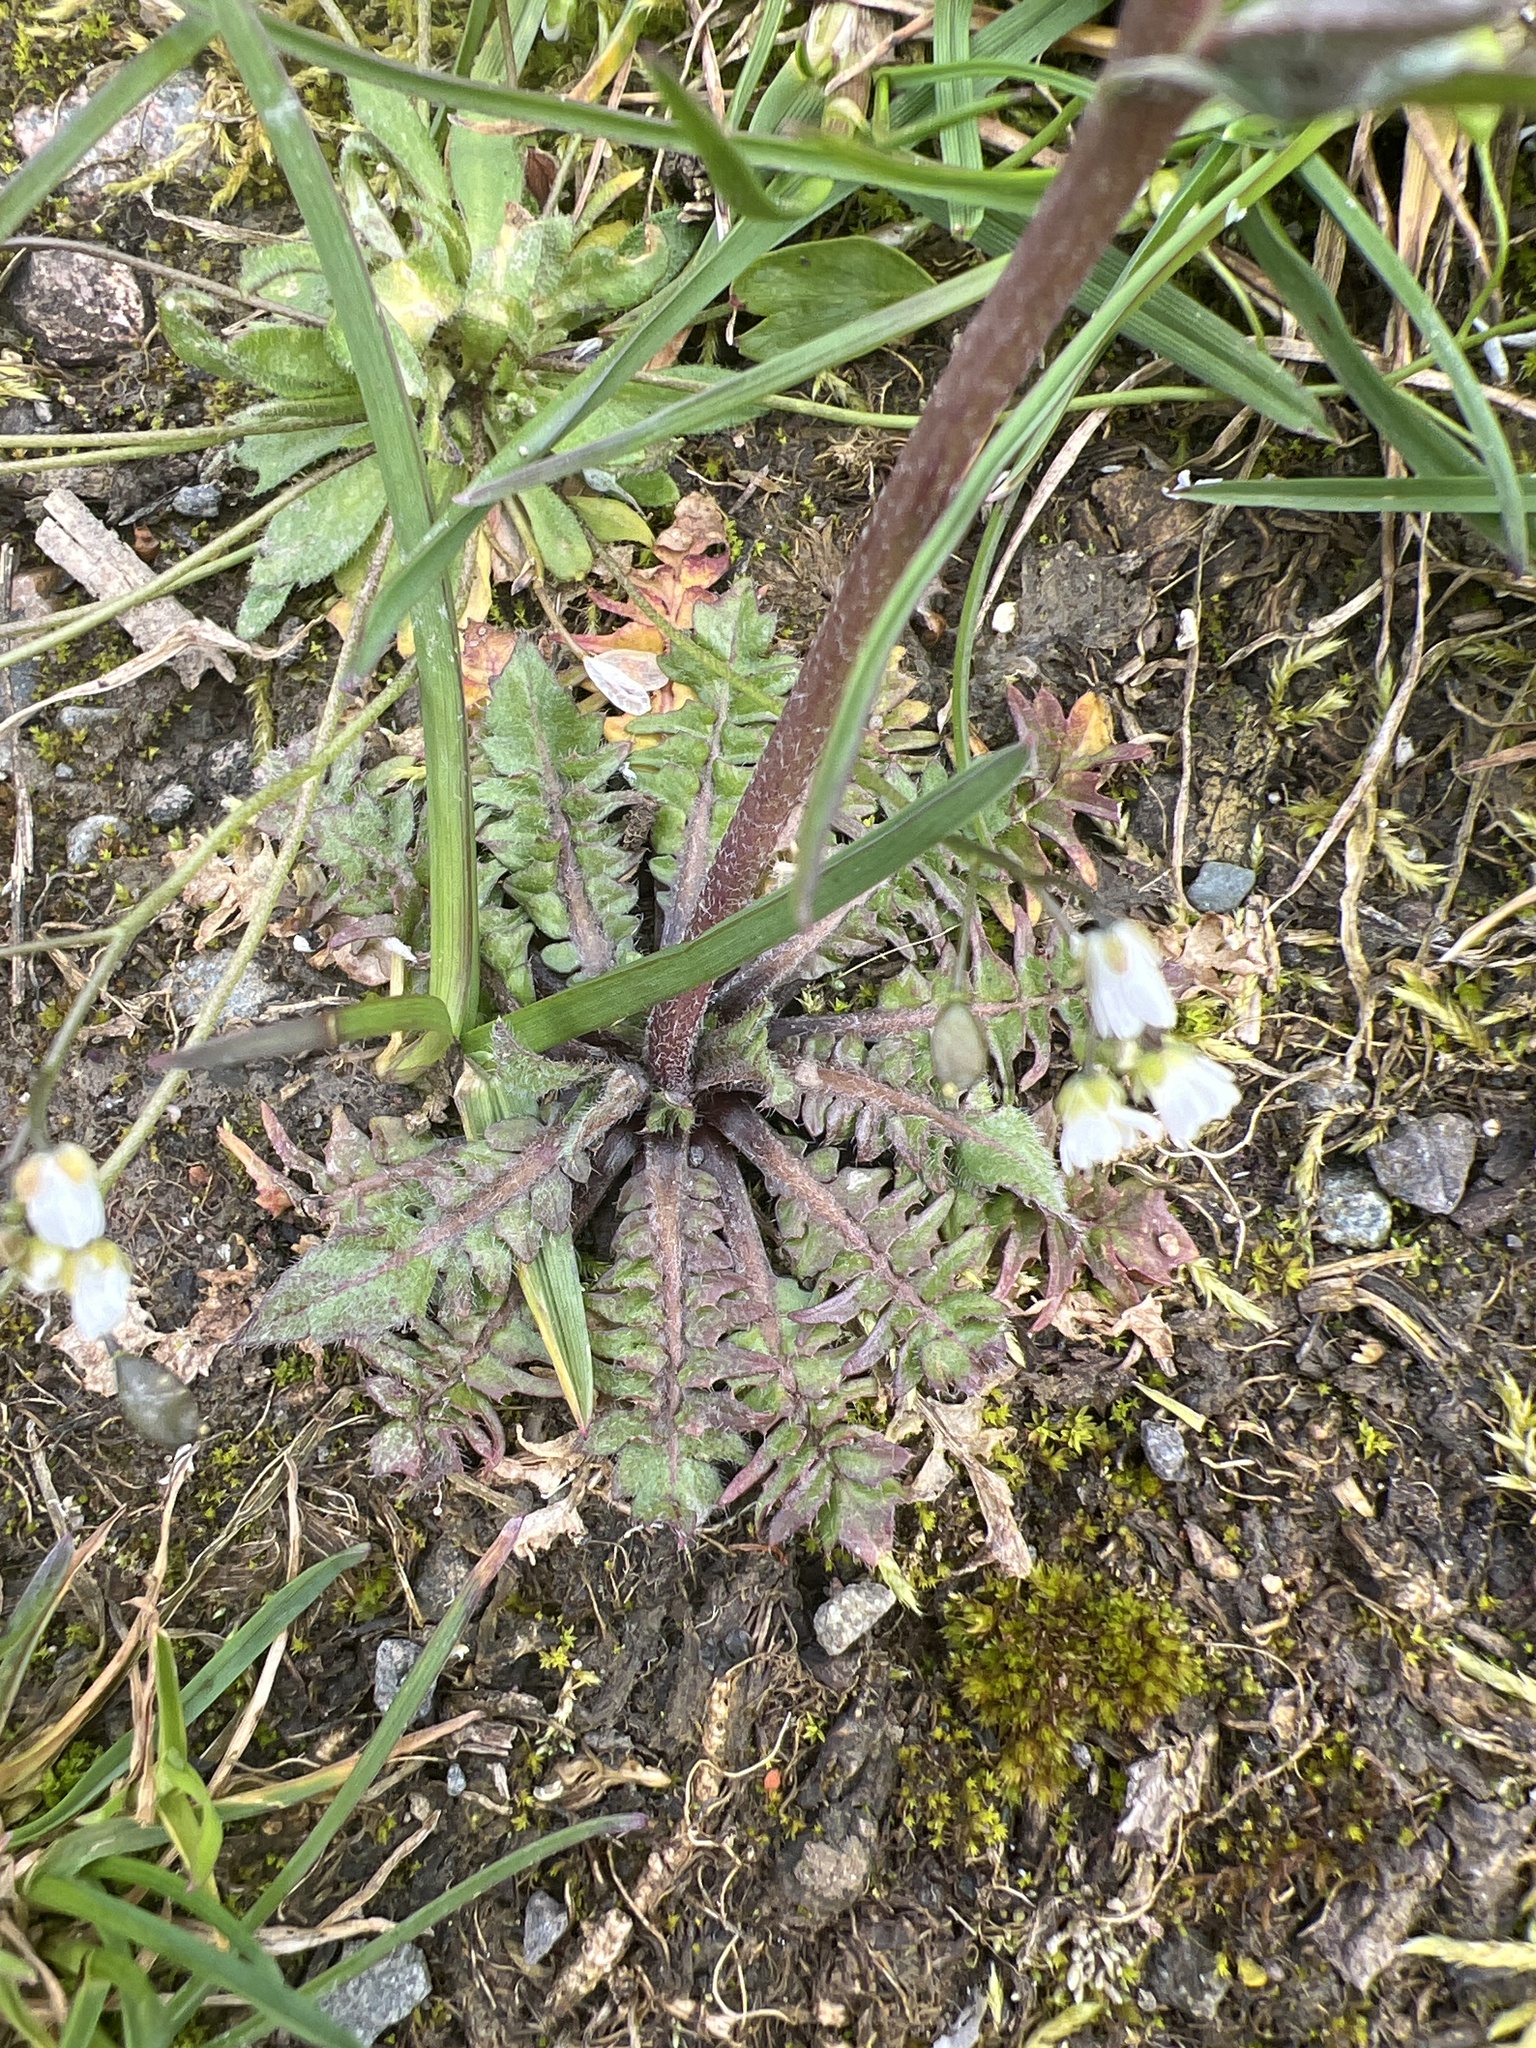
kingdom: Plantae
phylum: Tracheophyta
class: Magnoliopsida
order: Brassicales
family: Brassicaceae
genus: Capsella
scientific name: Capsella bursa-pastoris
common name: Shepherd's purse
